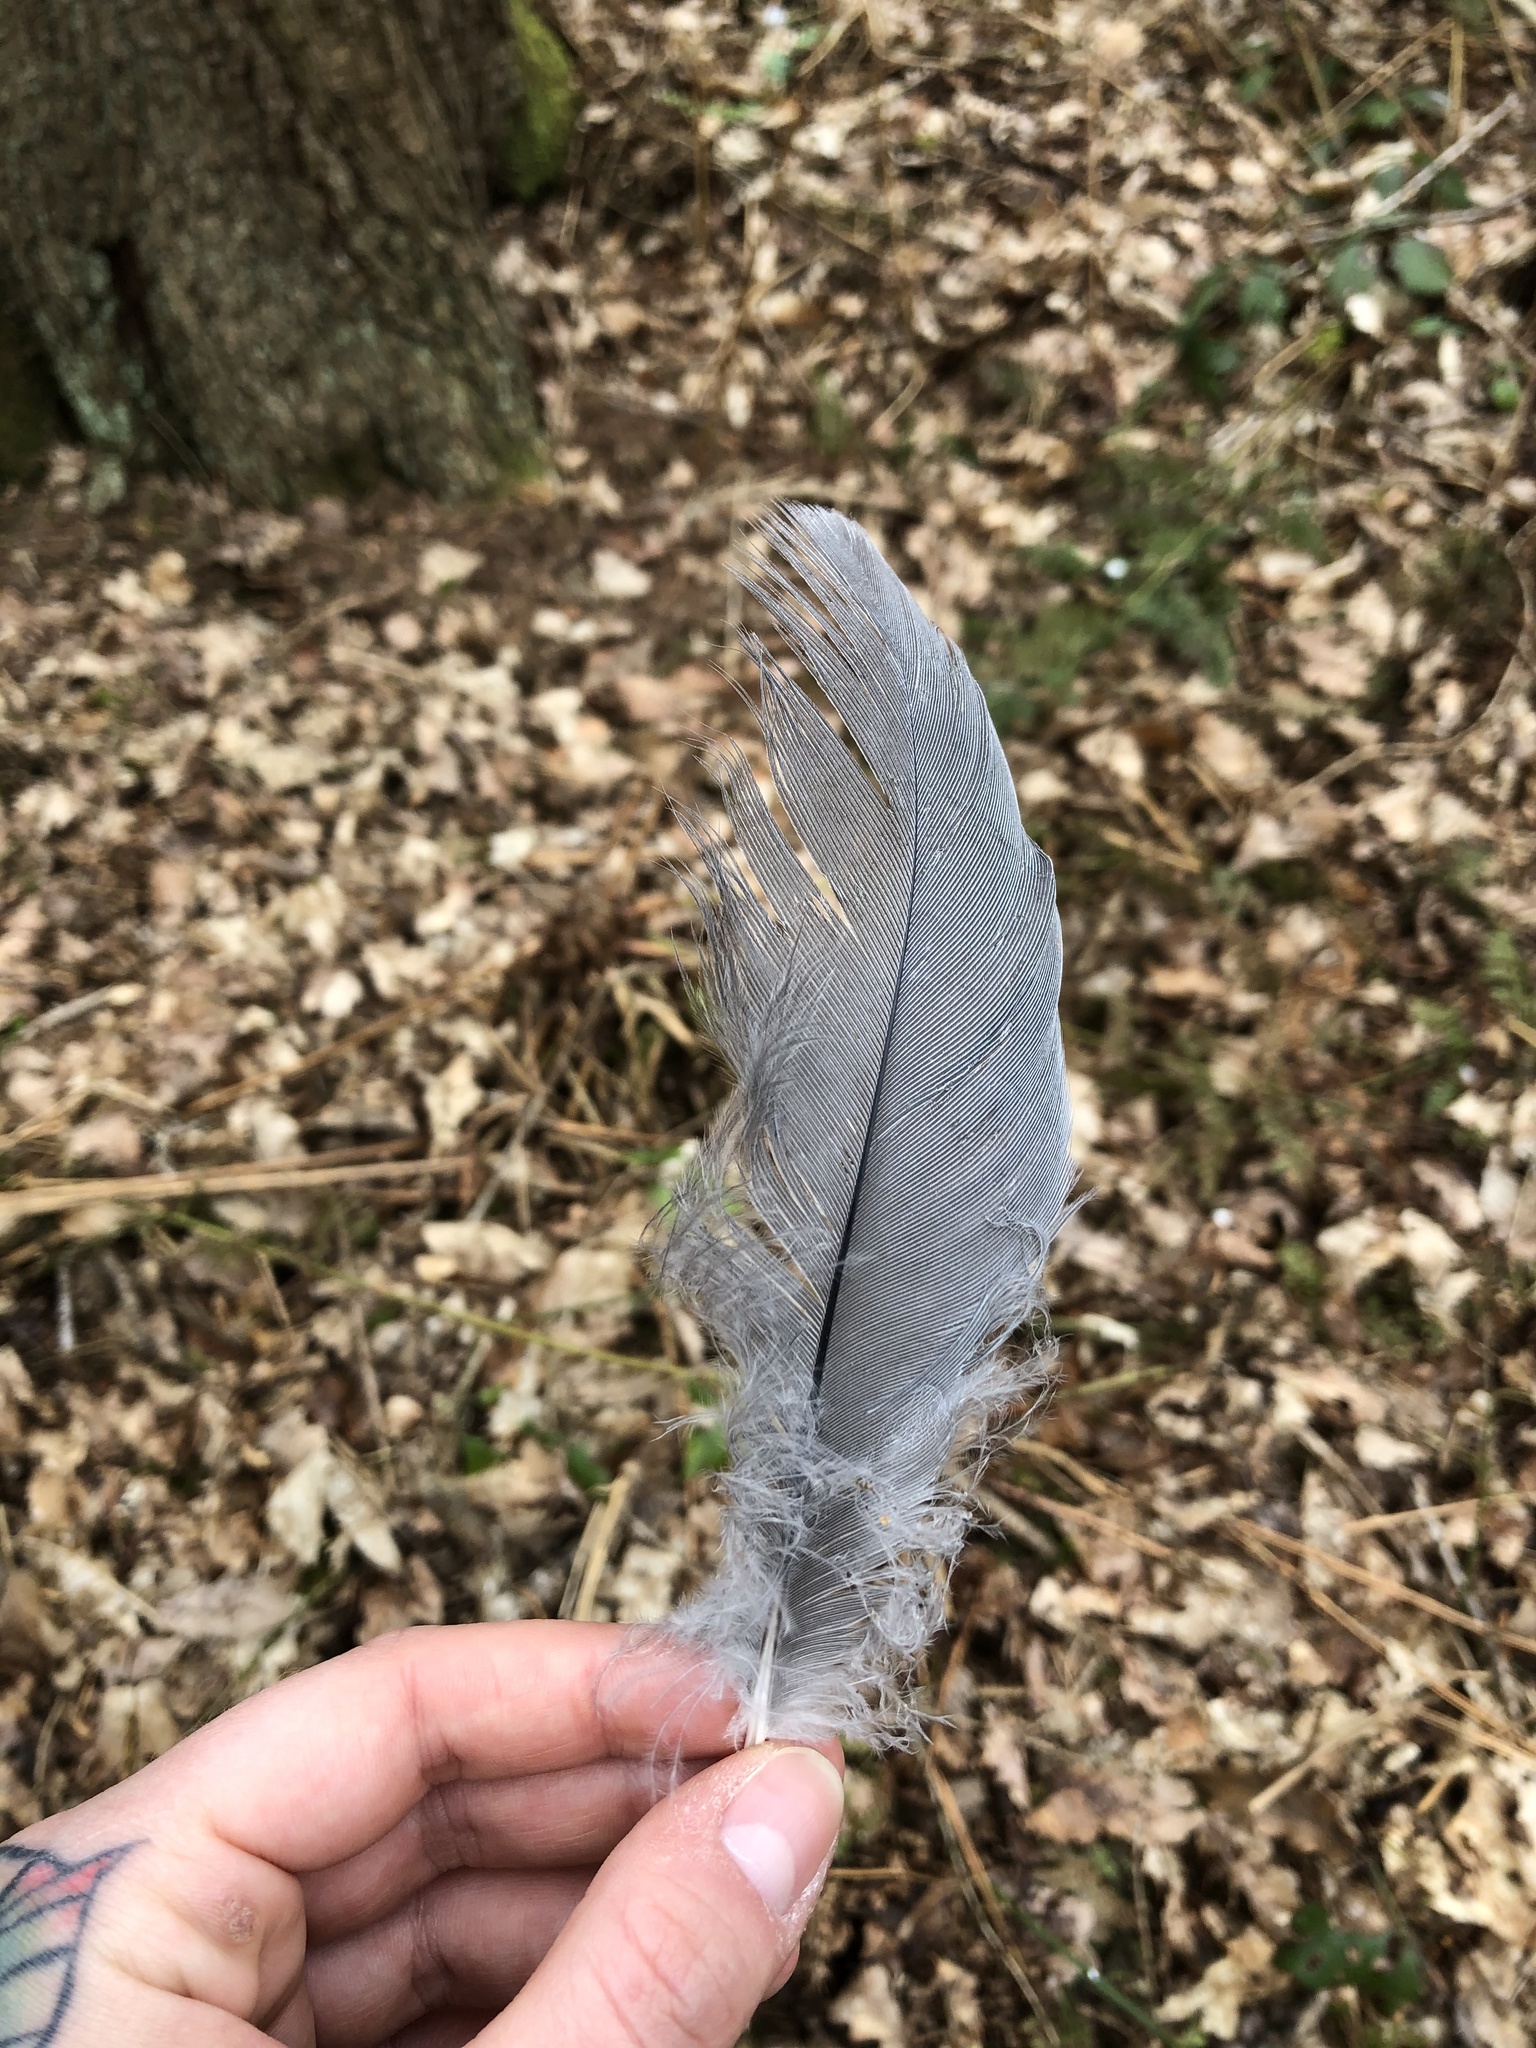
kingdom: Animalia
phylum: Chordata
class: Aves
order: Pelecaniformes
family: Ardeidae
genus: Ardea
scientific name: Ardea cinerea
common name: Grey heron
